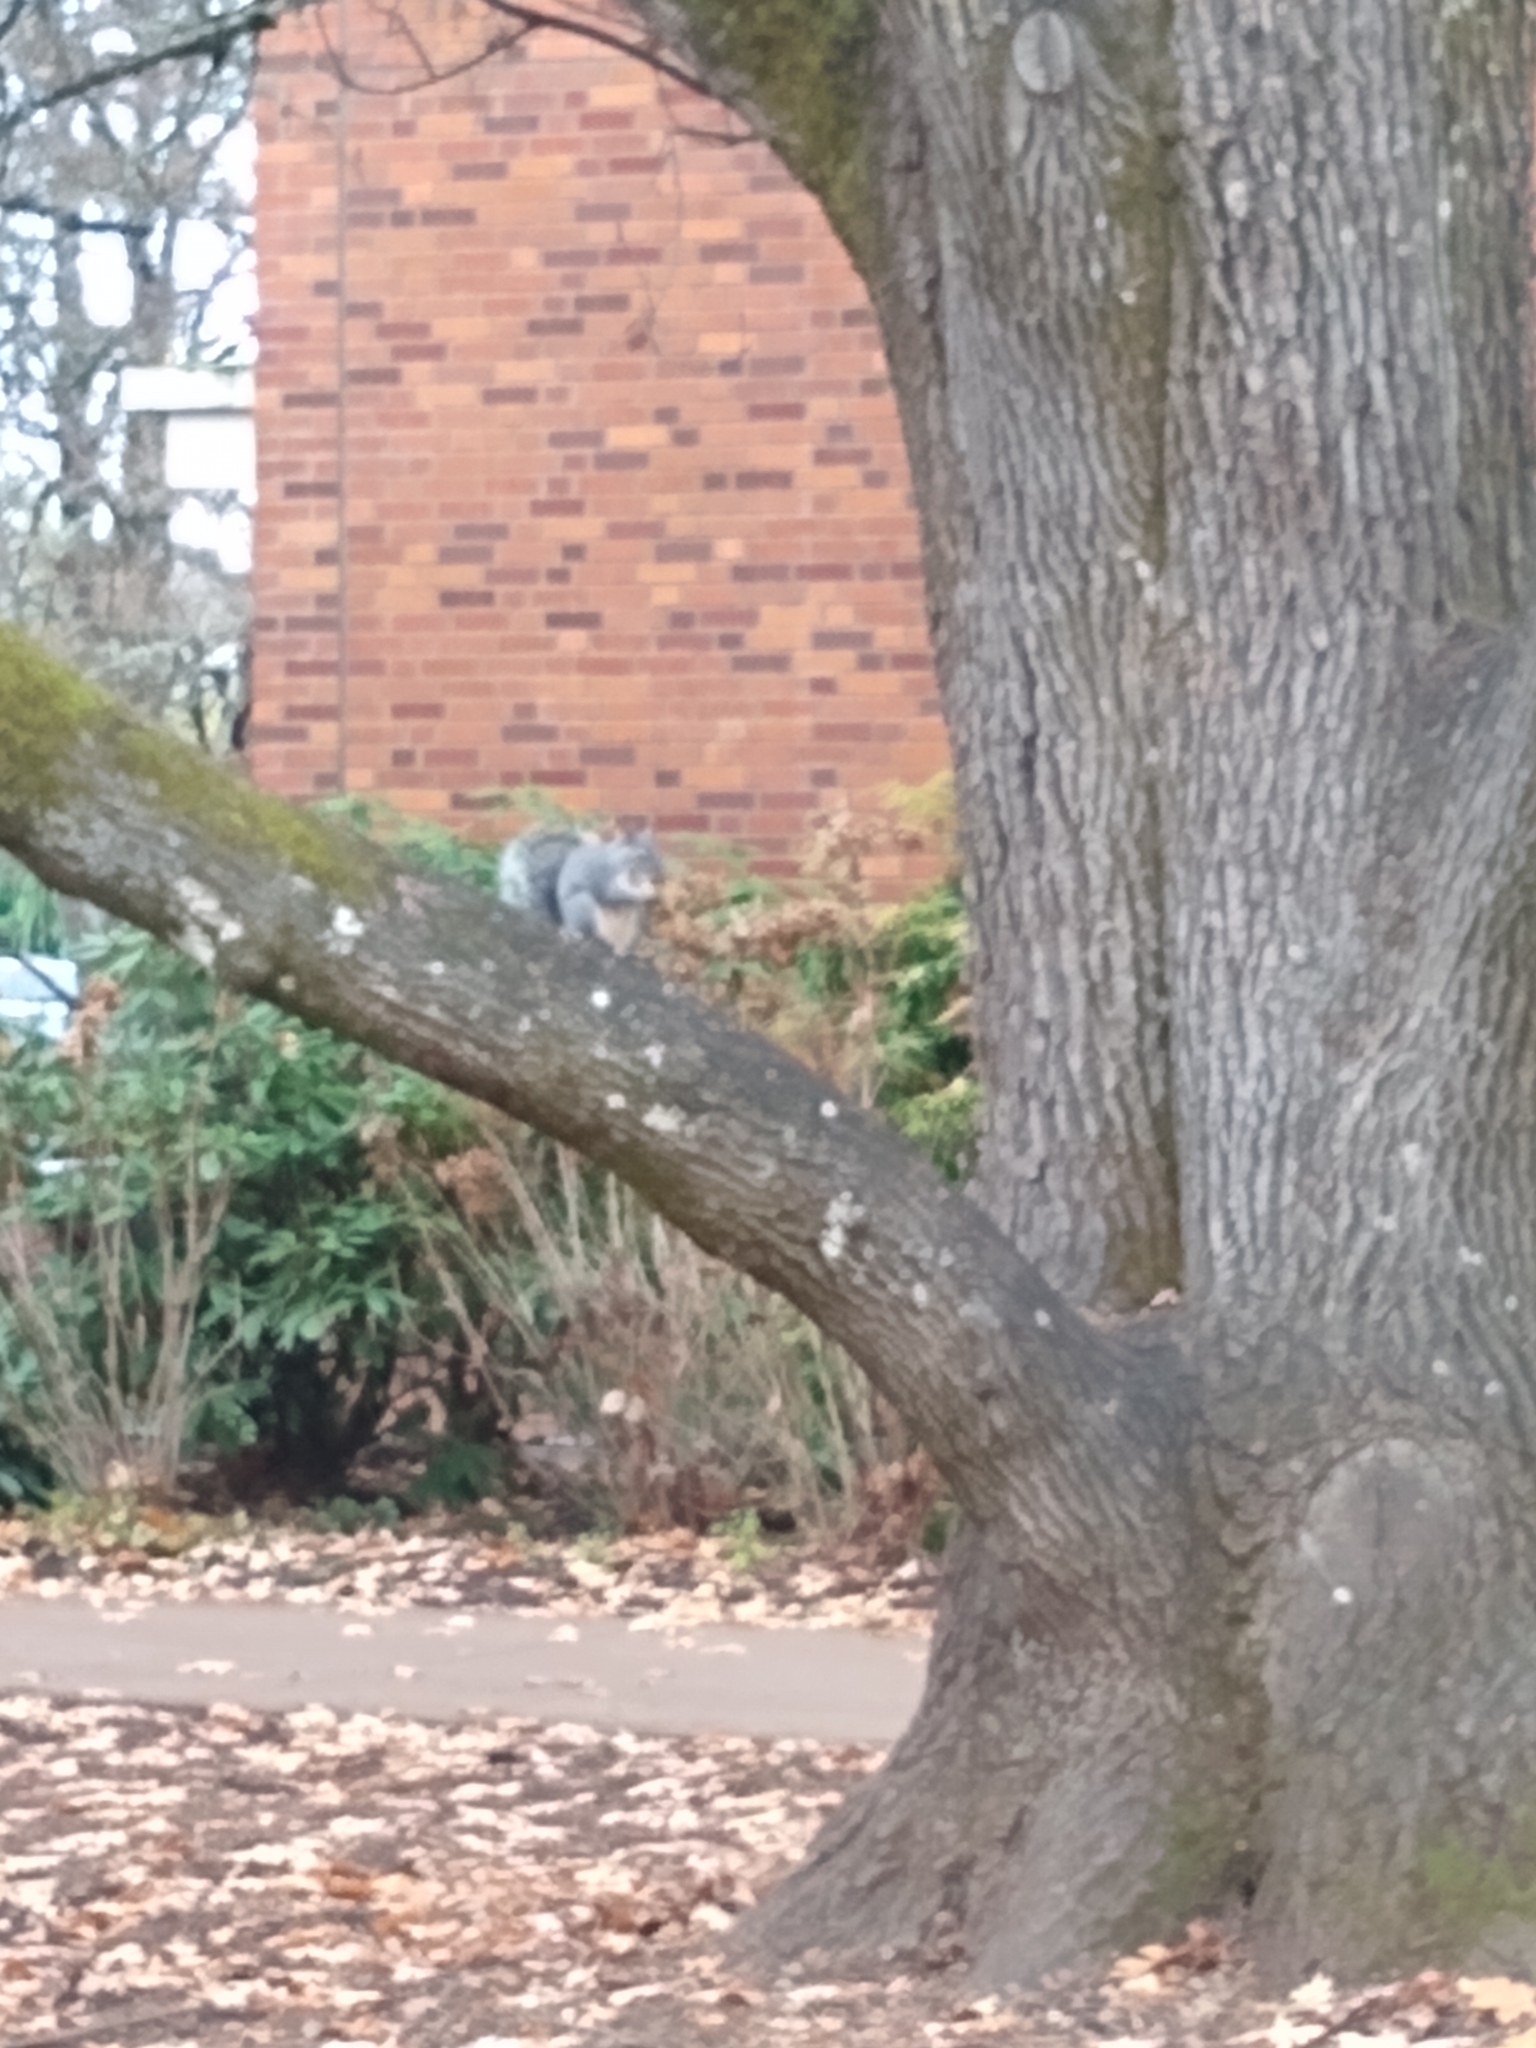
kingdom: Animalia
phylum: Chordata
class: Mammalia
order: Rodentia
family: Sciuridae
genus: Sciurus
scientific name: Sciurus griseus
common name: Western gray squirrel
